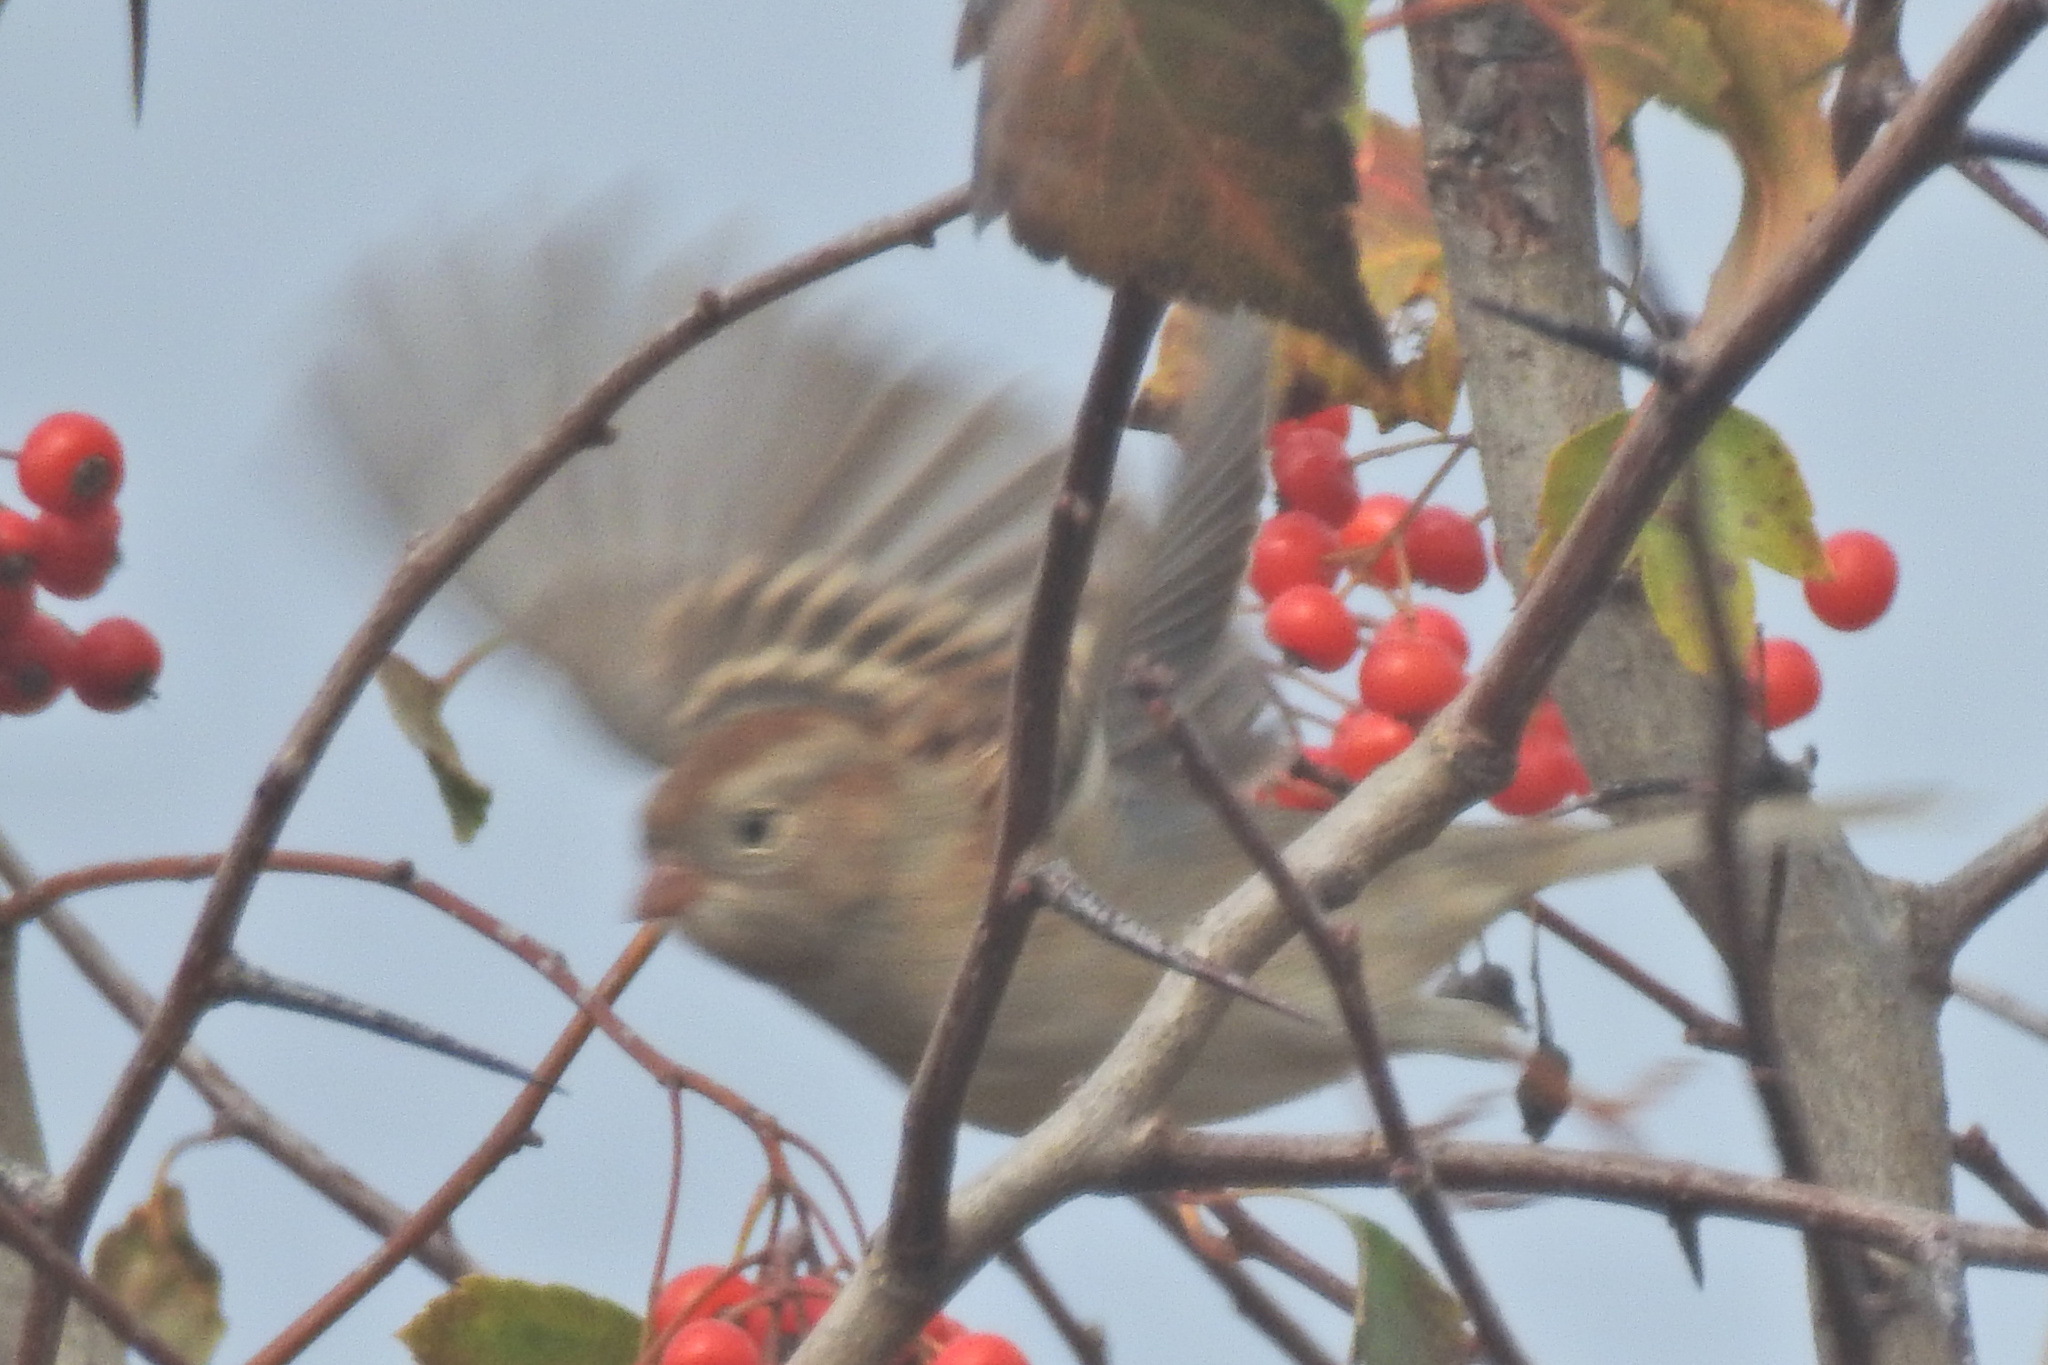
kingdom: Animalia
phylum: Chordata
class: Aves
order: Passeriformes
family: Passerellidae
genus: Spizella
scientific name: Spizella pusilla
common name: Field sparrow
